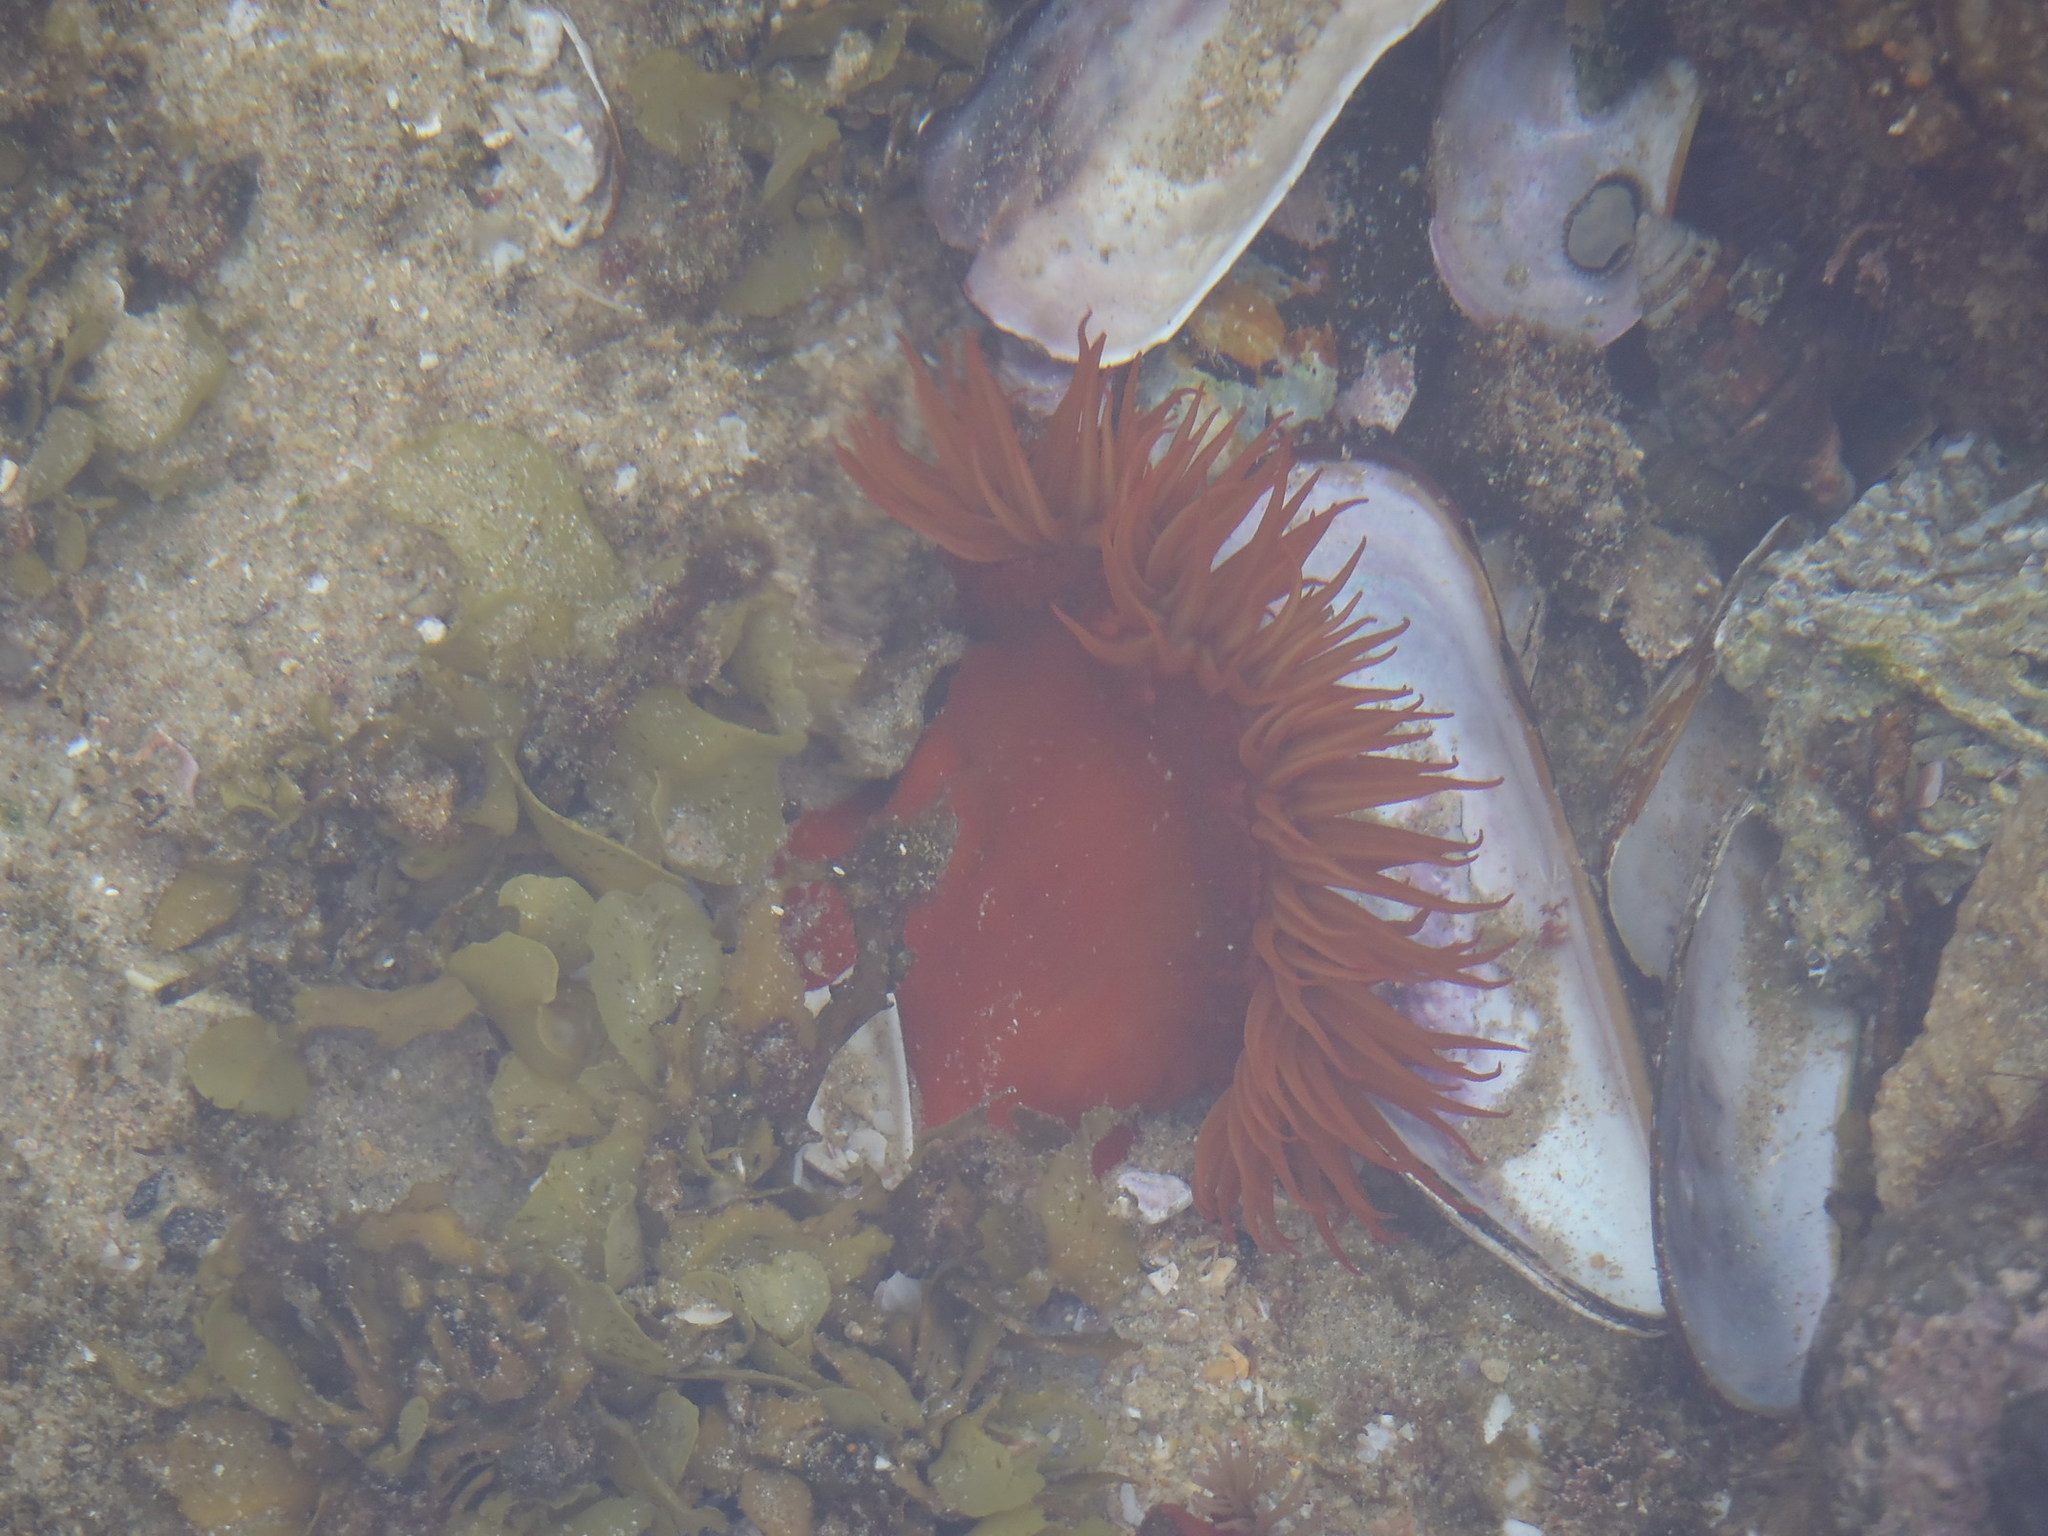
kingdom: Animalia
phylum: Cnidaria
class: Anthozoa
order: Actiniaria
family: Actiniidae
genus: Pseudactinia
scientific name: Pseudactinia flagellifera
